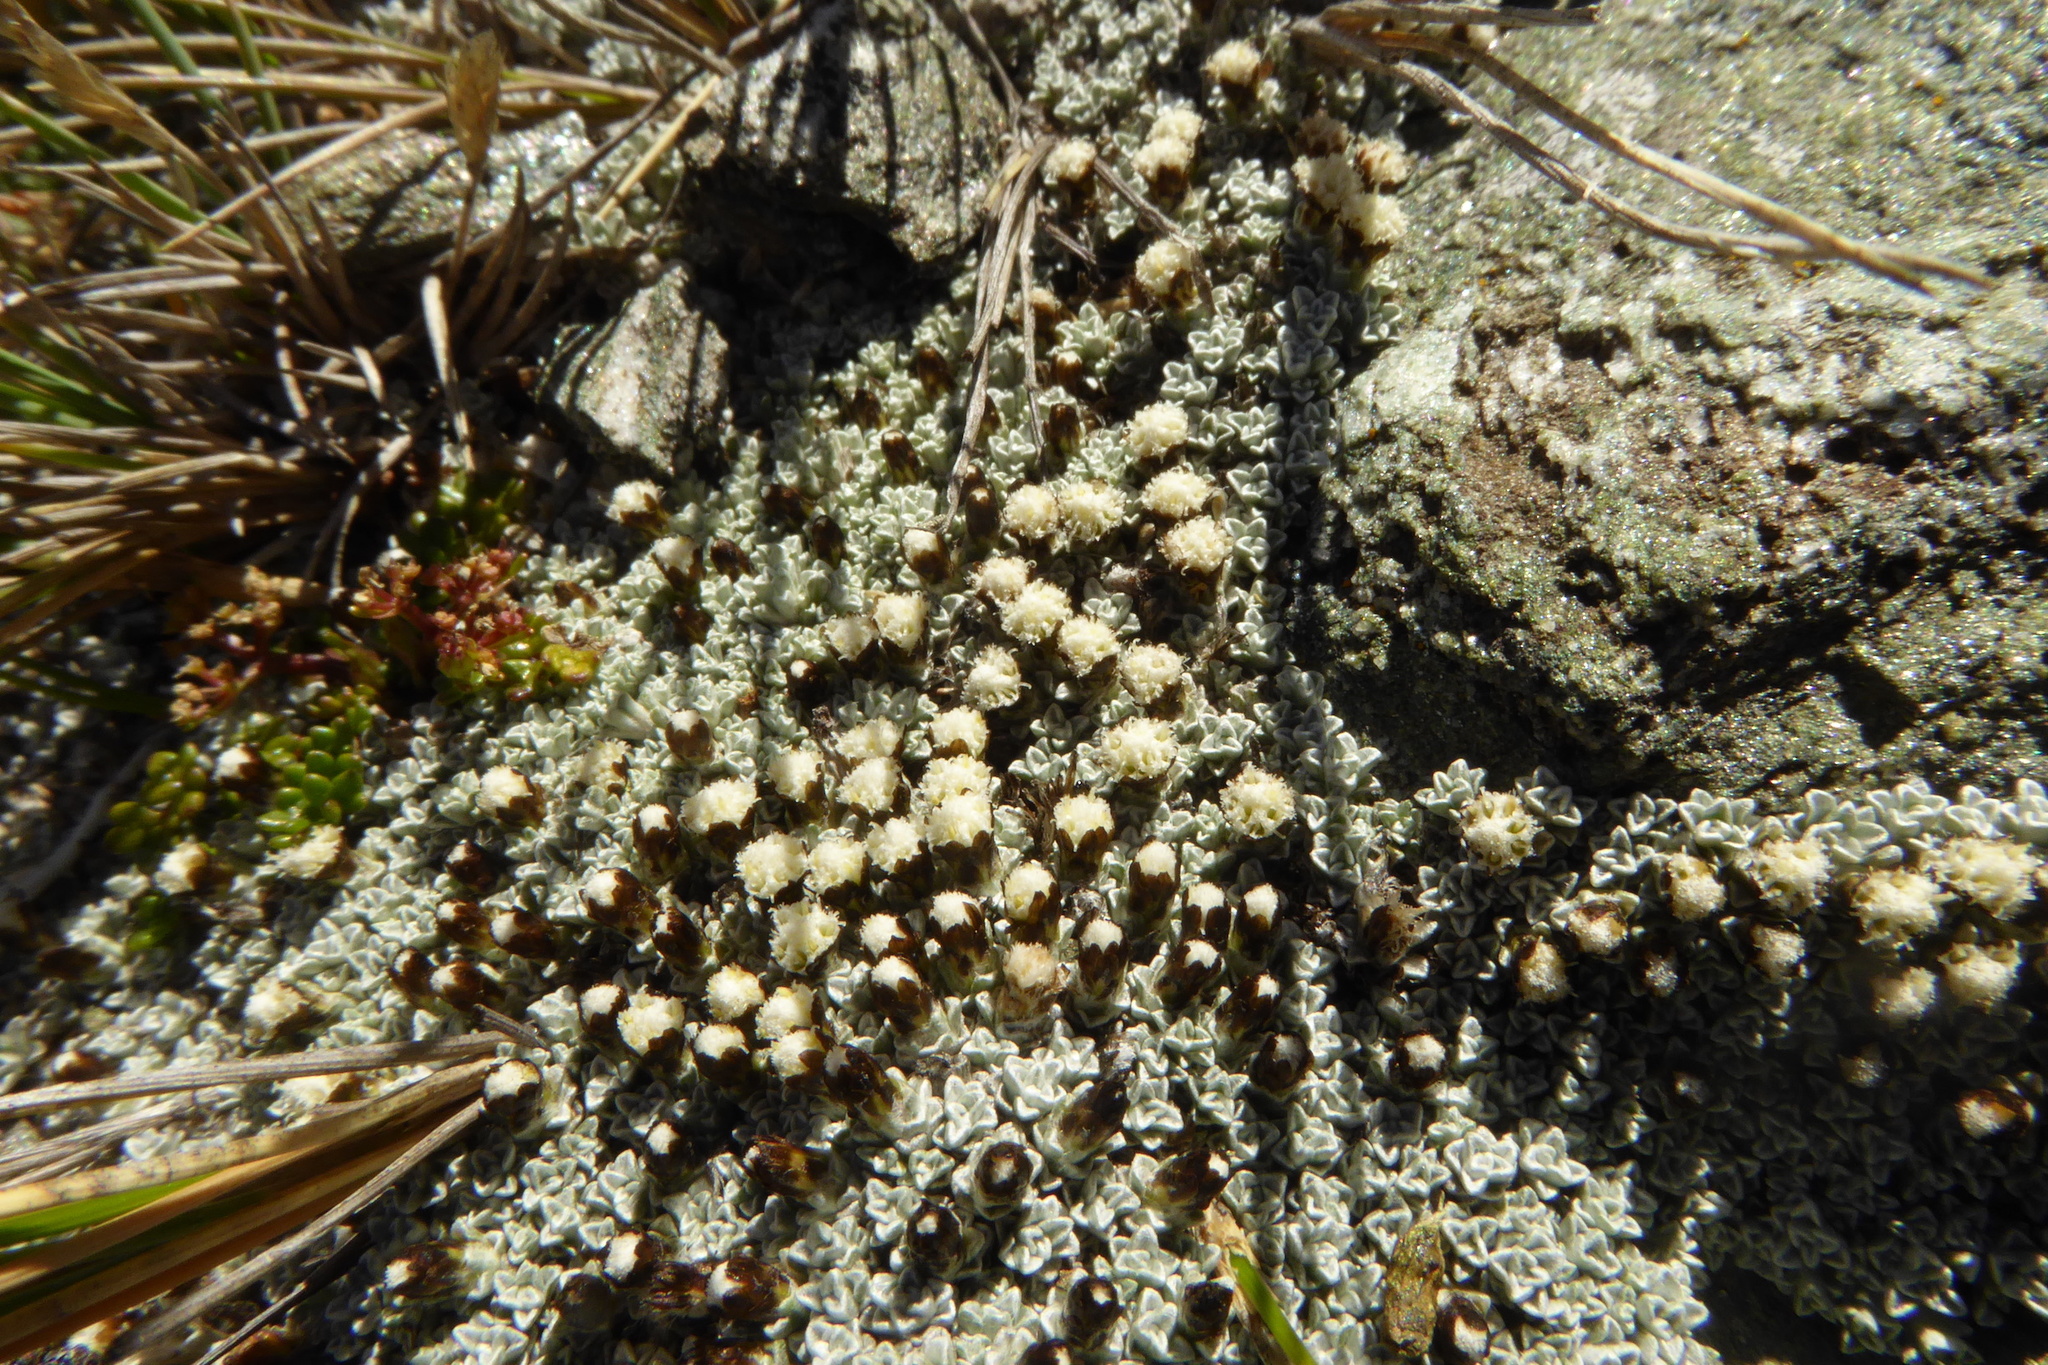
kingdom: Plantae
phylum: Tracheophyta
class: Magnoliopsida
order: Asterales
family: Asteraceae
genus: Raoulia
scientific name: Raoulia apicinigra
